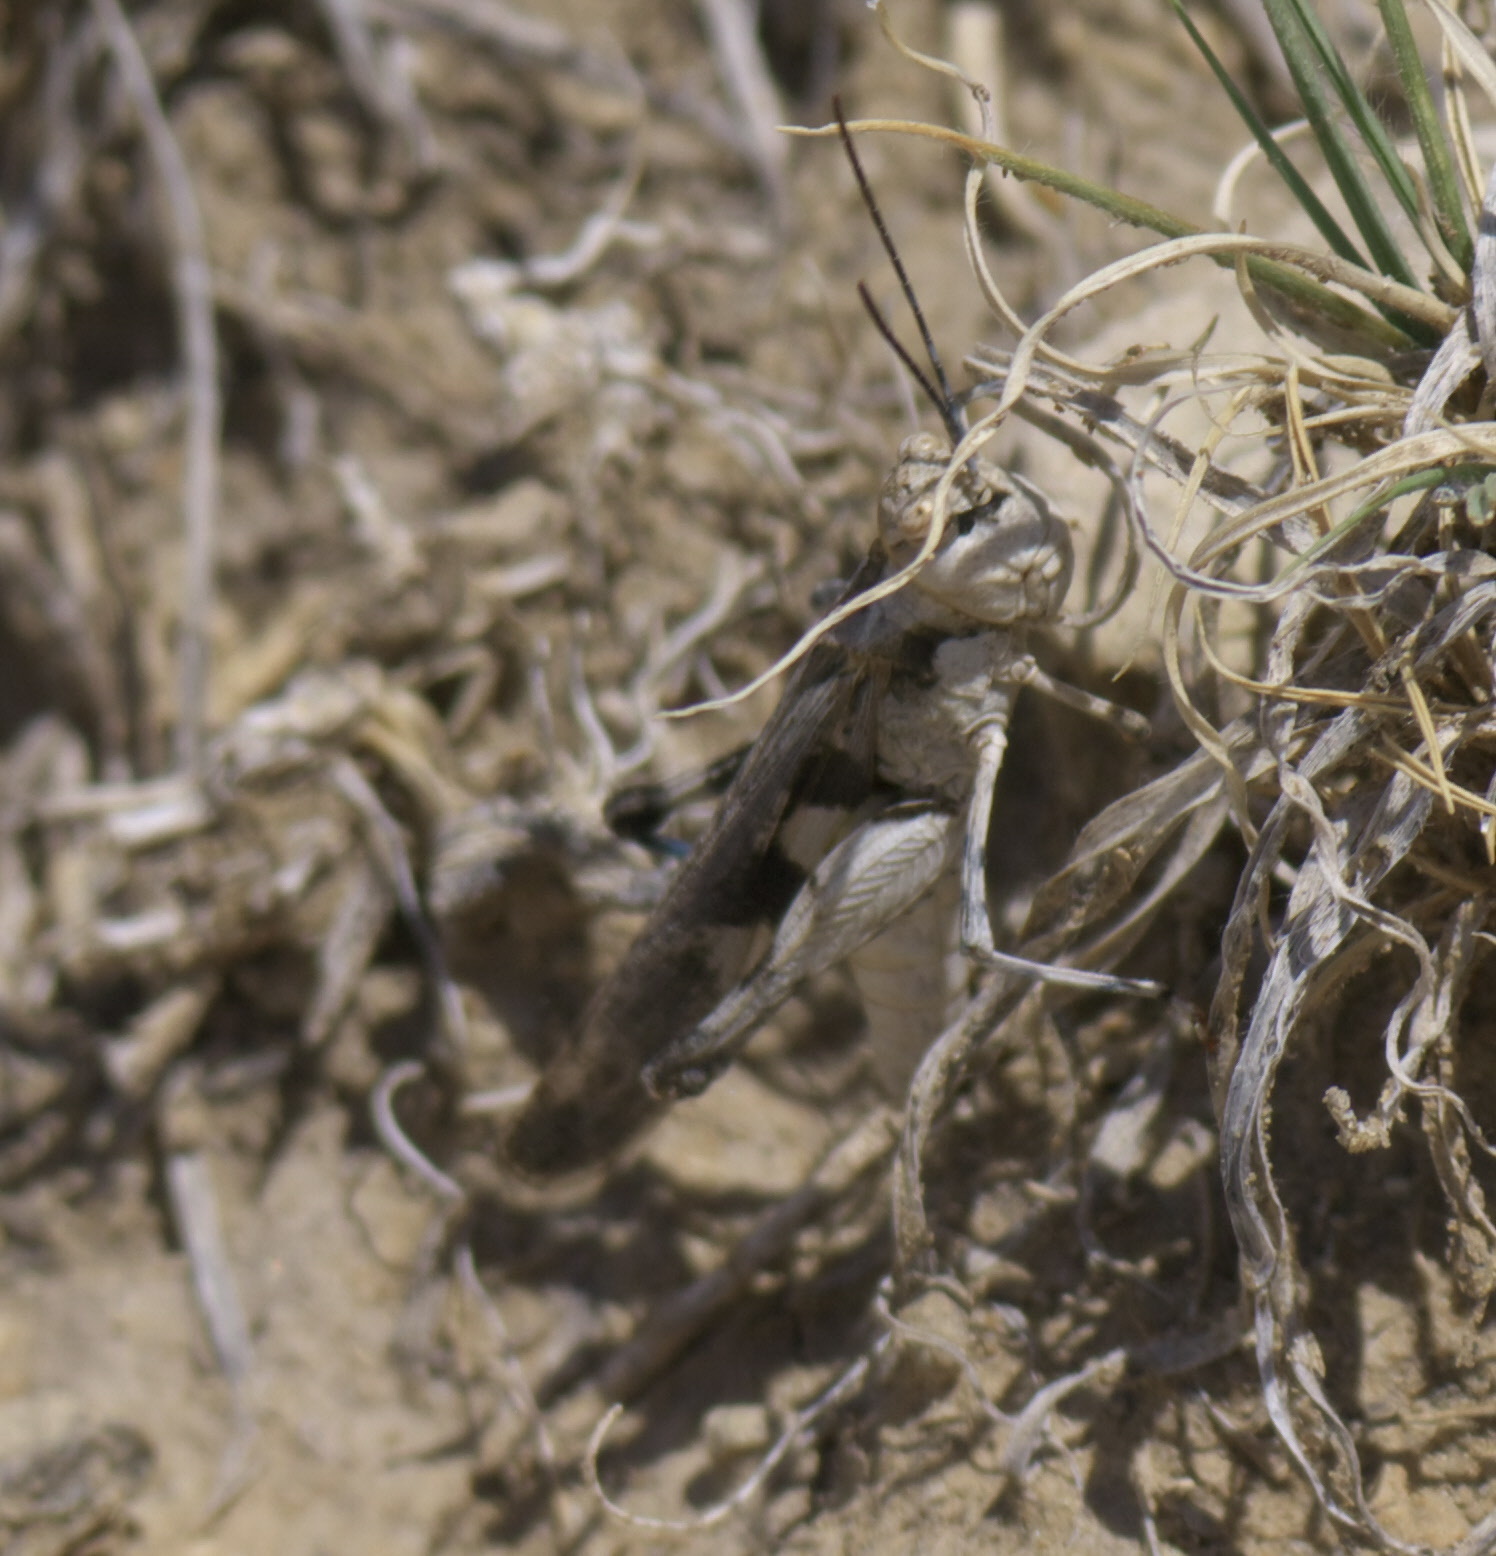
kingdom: Animalia
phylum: Arthropoda
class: Insecta
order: Orthoptera
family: Acrididae
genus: Mestobregma
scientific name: Mestobregma plattei
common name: Platte range grasshopper
